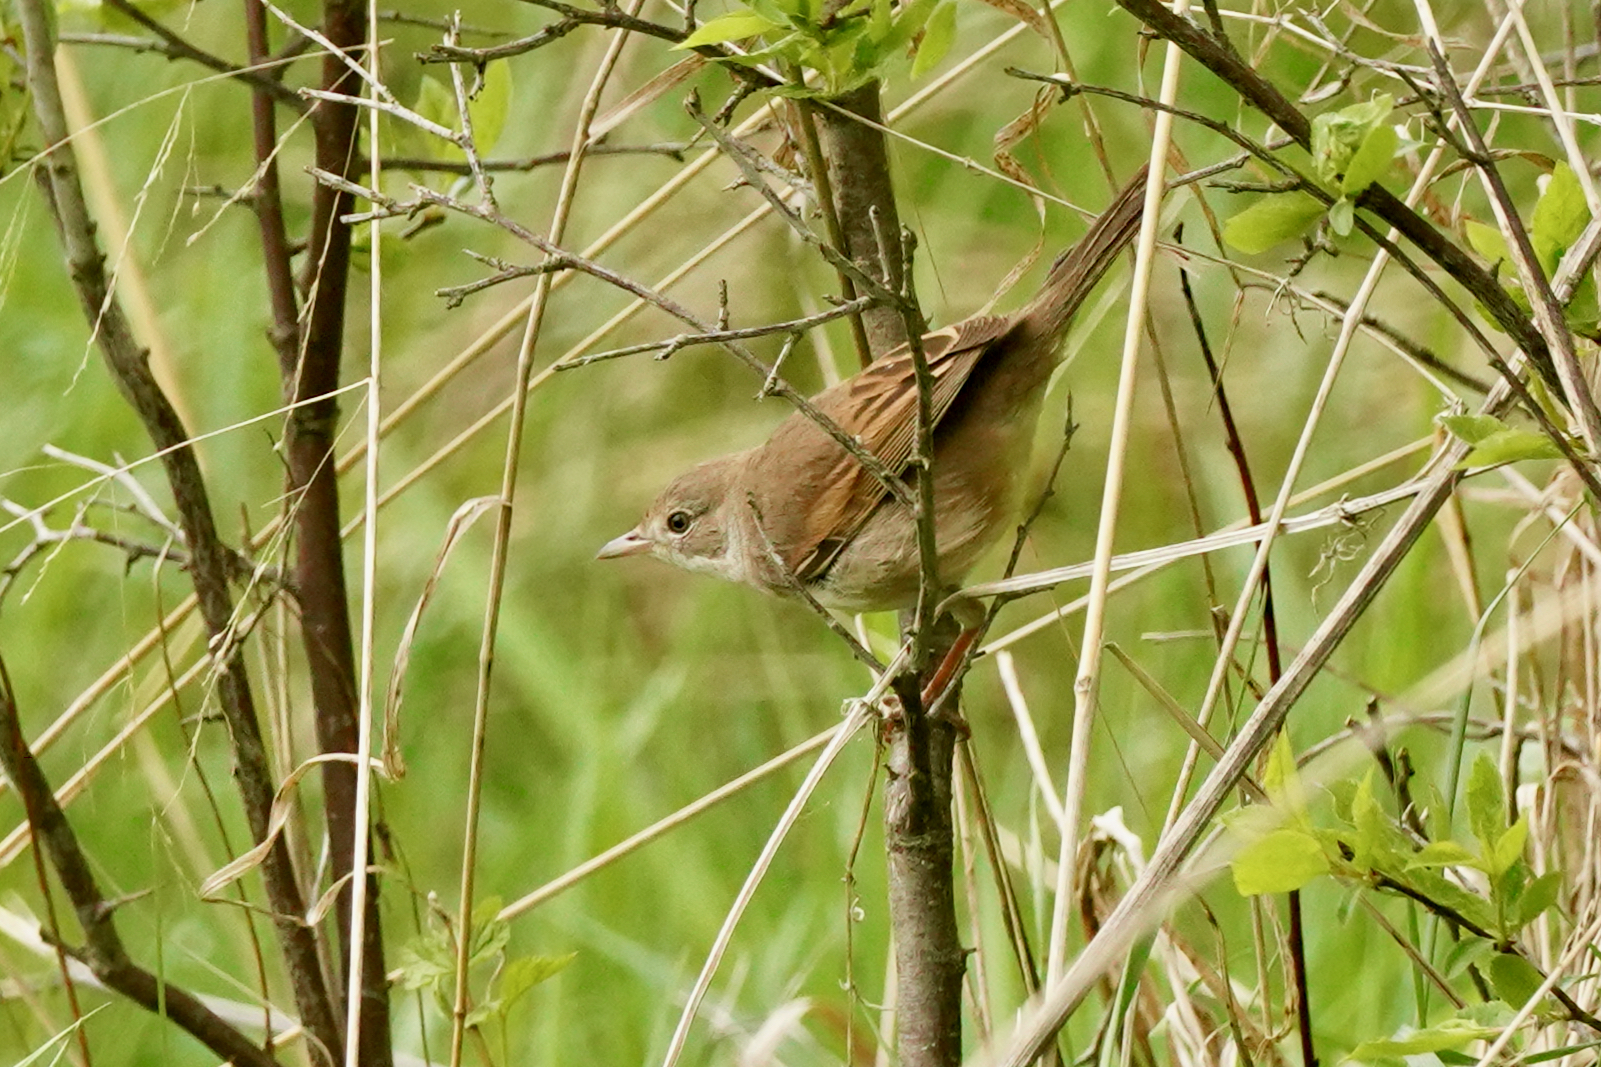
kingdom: Animalia
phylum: Chordata
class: Aves
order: Passeriformes
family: Sylviidae
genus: Sylvia
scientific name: Sylvia communis
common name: Common whitethroat
